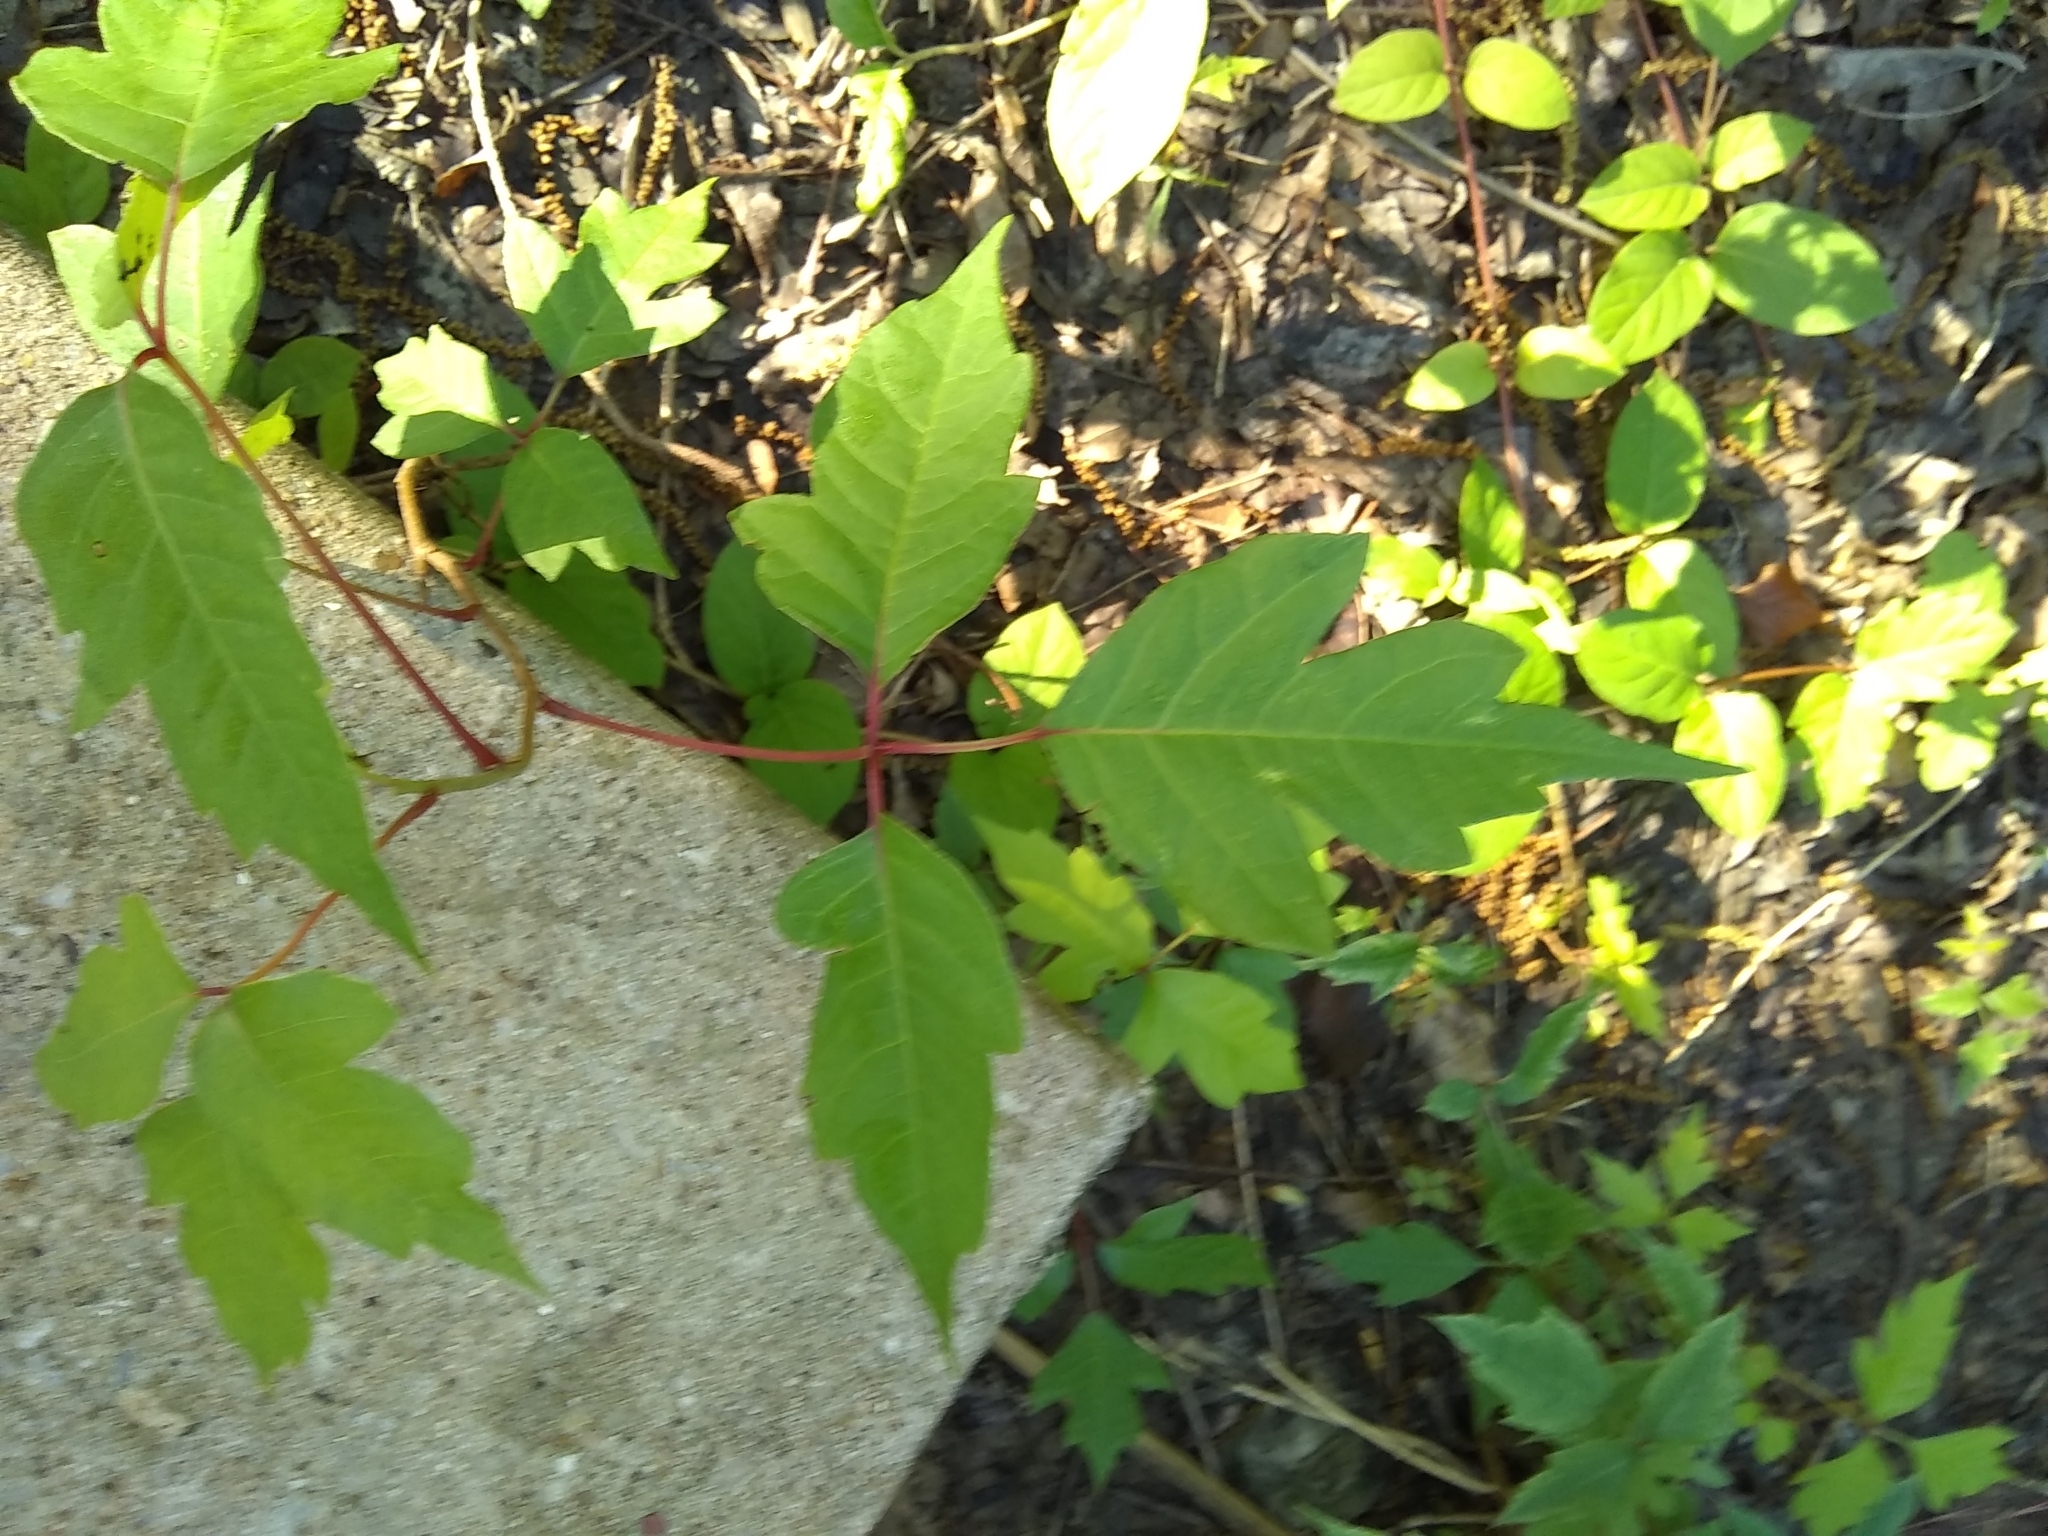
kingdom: Plantae
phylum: Tracheophyta
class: Magnoliopsida
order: Sapindales
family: Anacardiaceae
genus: Toxicodendron
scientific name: Toxicodendron radicans
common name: Poison ivy
